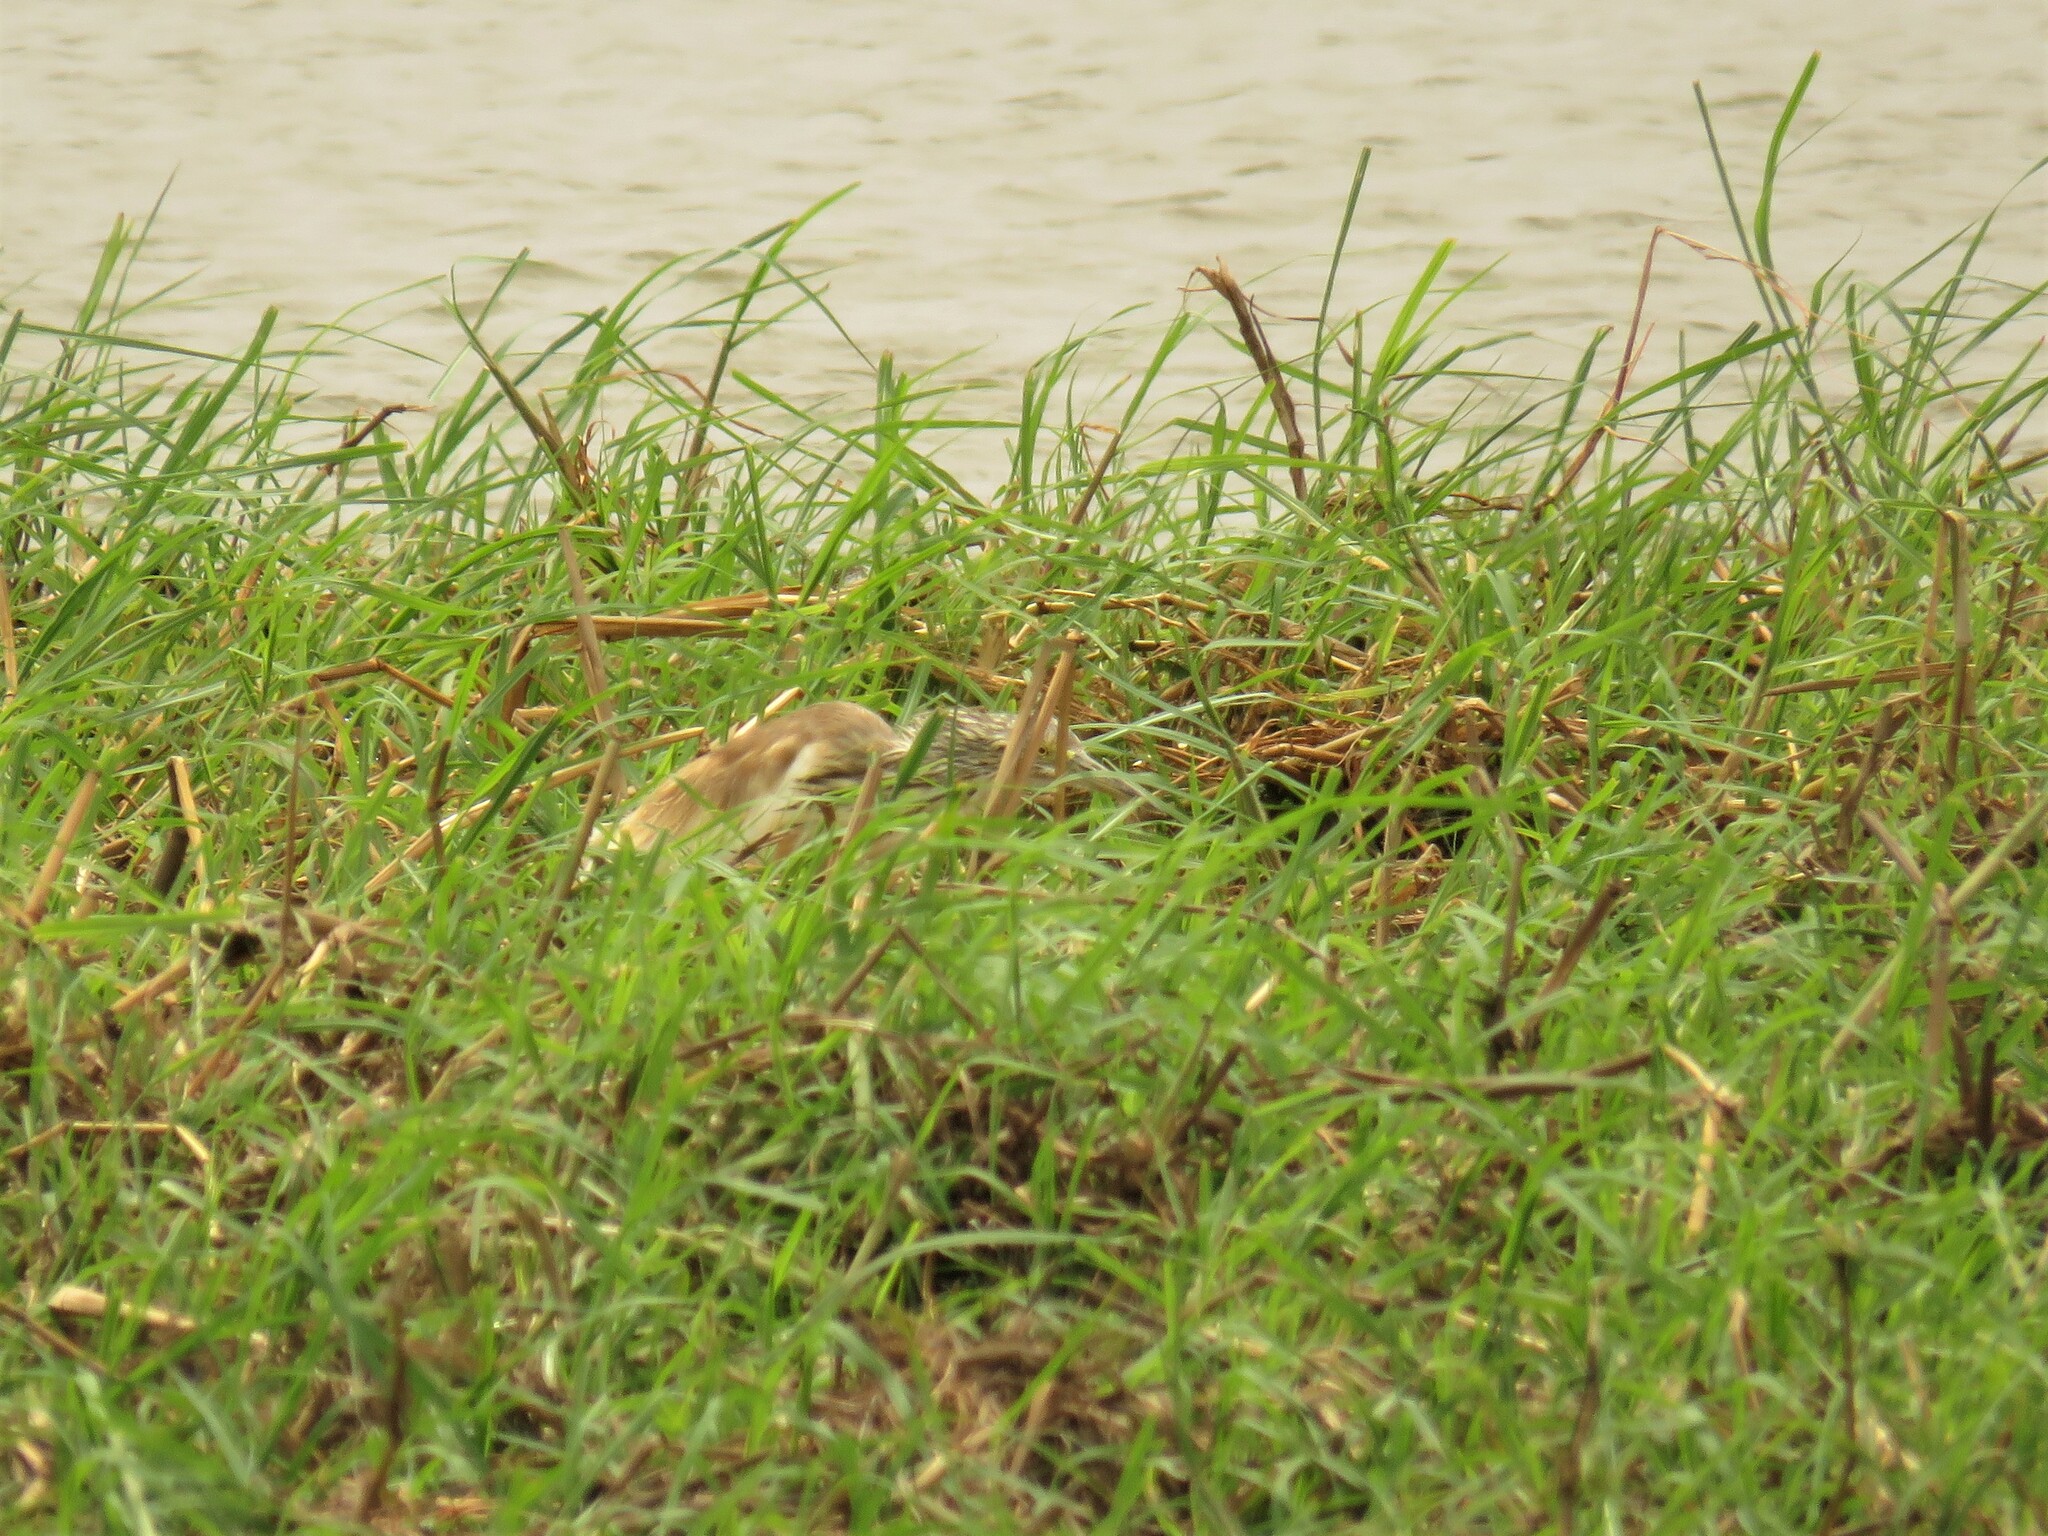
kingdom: Animalia
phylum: Chordata
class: Aves
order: Pelecaniformes
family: Ardeidae
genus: Ardeola
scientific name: Ardeola ralloides
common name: Squacco heron
